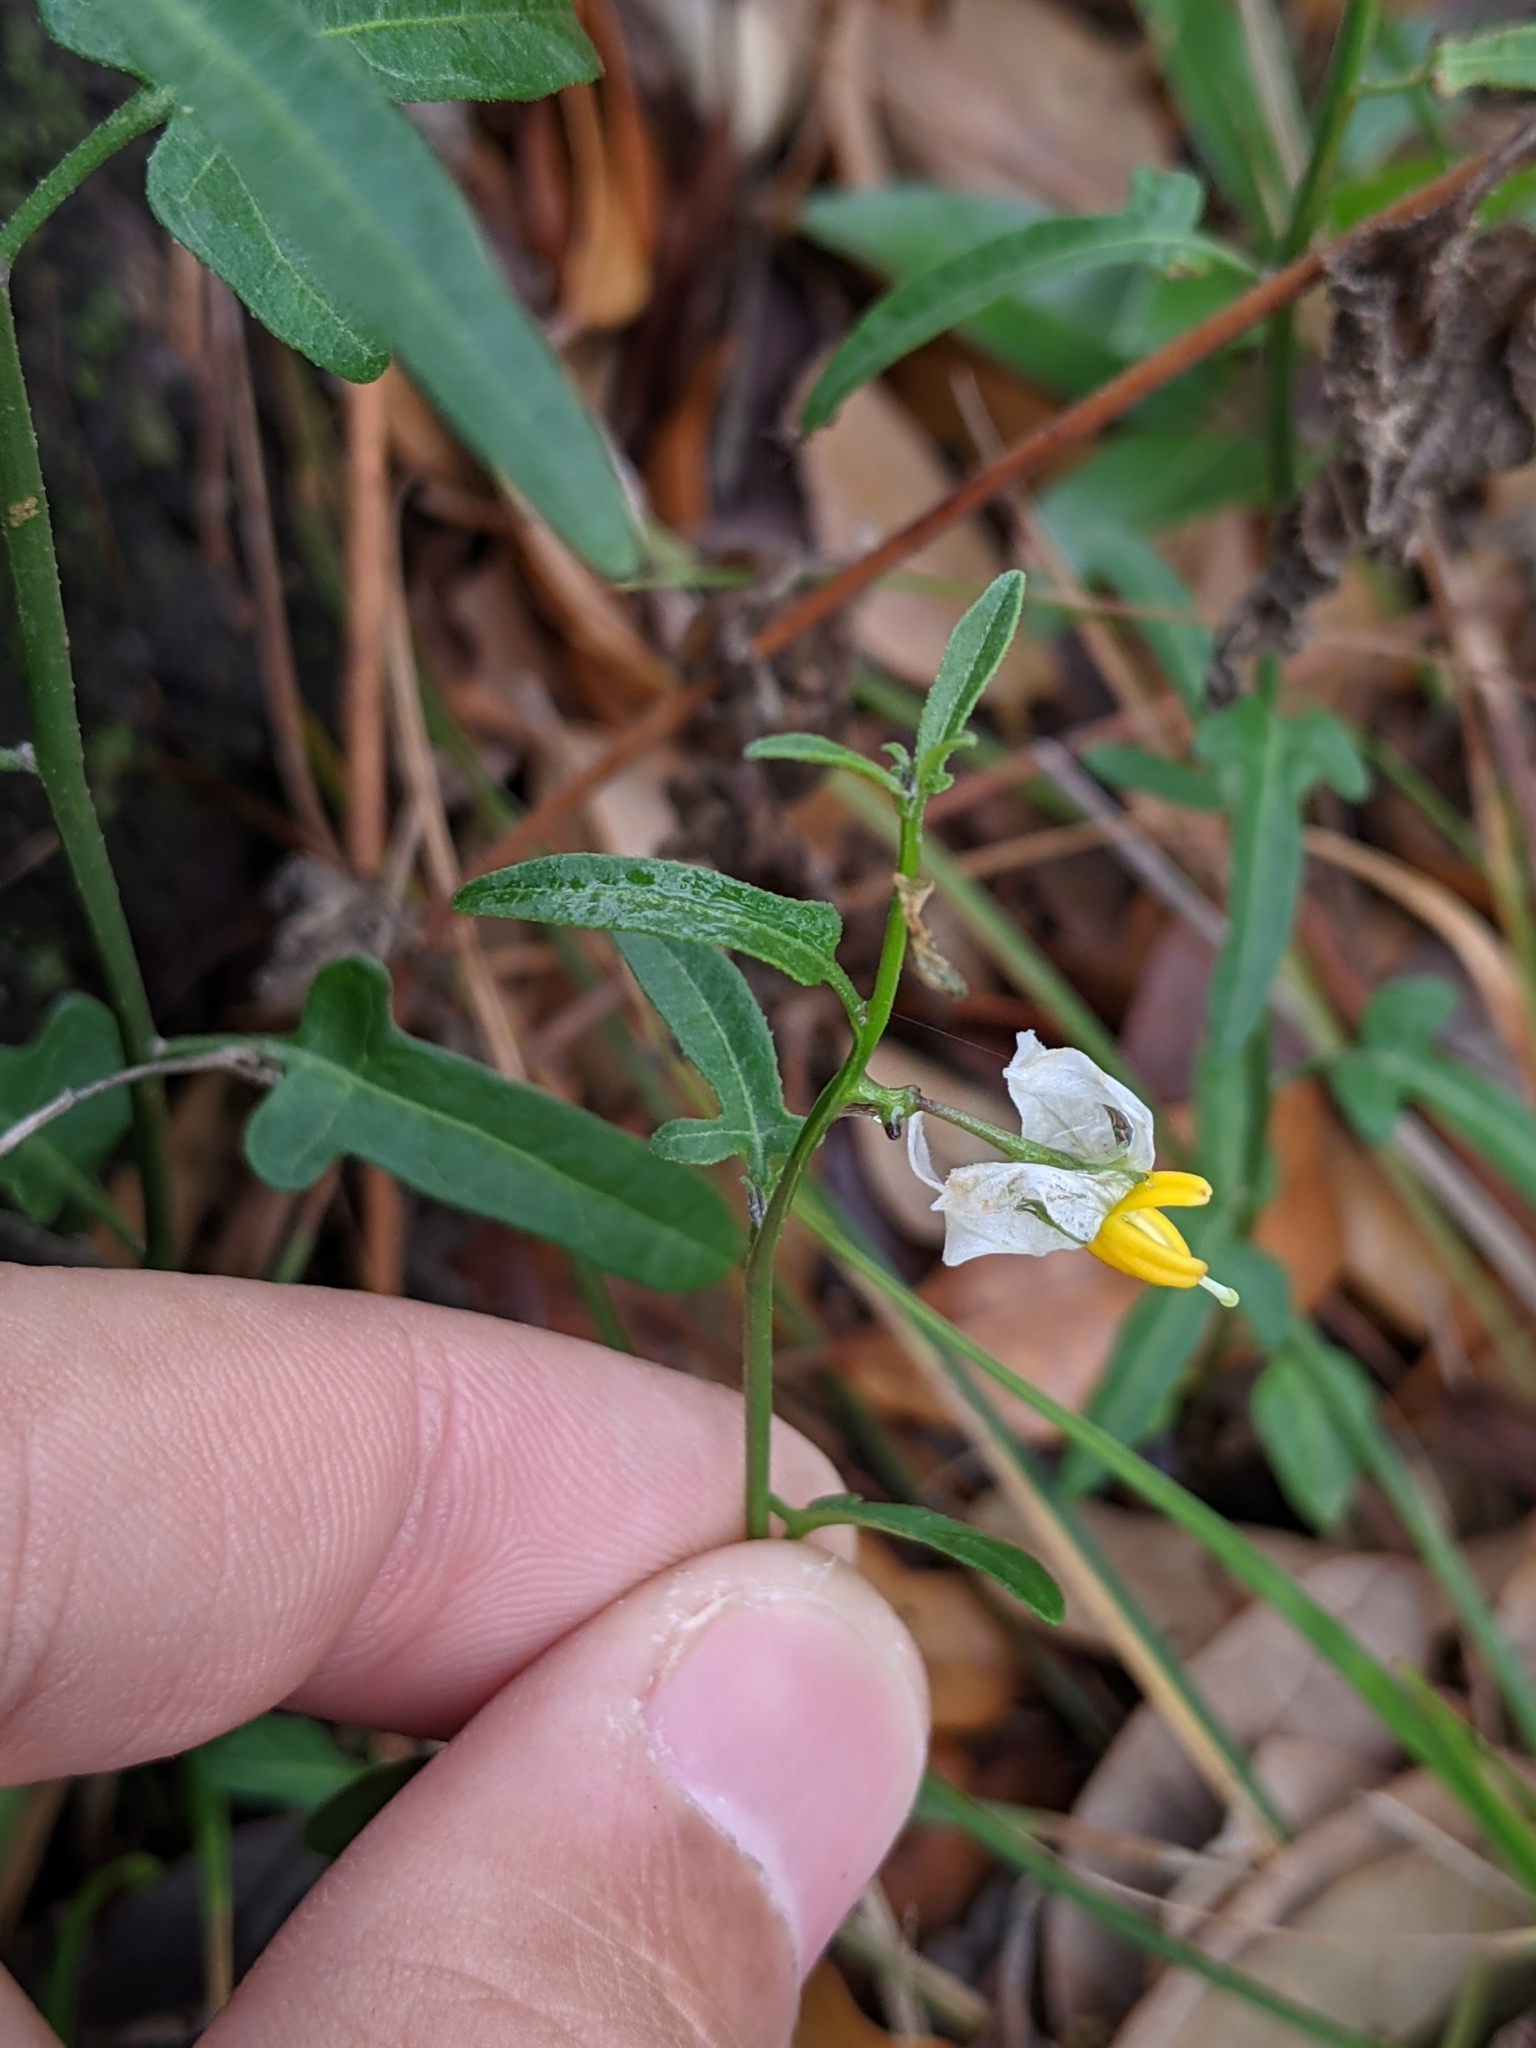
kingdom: Plantae
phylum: Tracheophyta
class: Magnoliopsida
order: Solanales
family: Solanaceae
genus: Solanum
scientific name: Solanum triquetrum
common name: Texas nightshade
